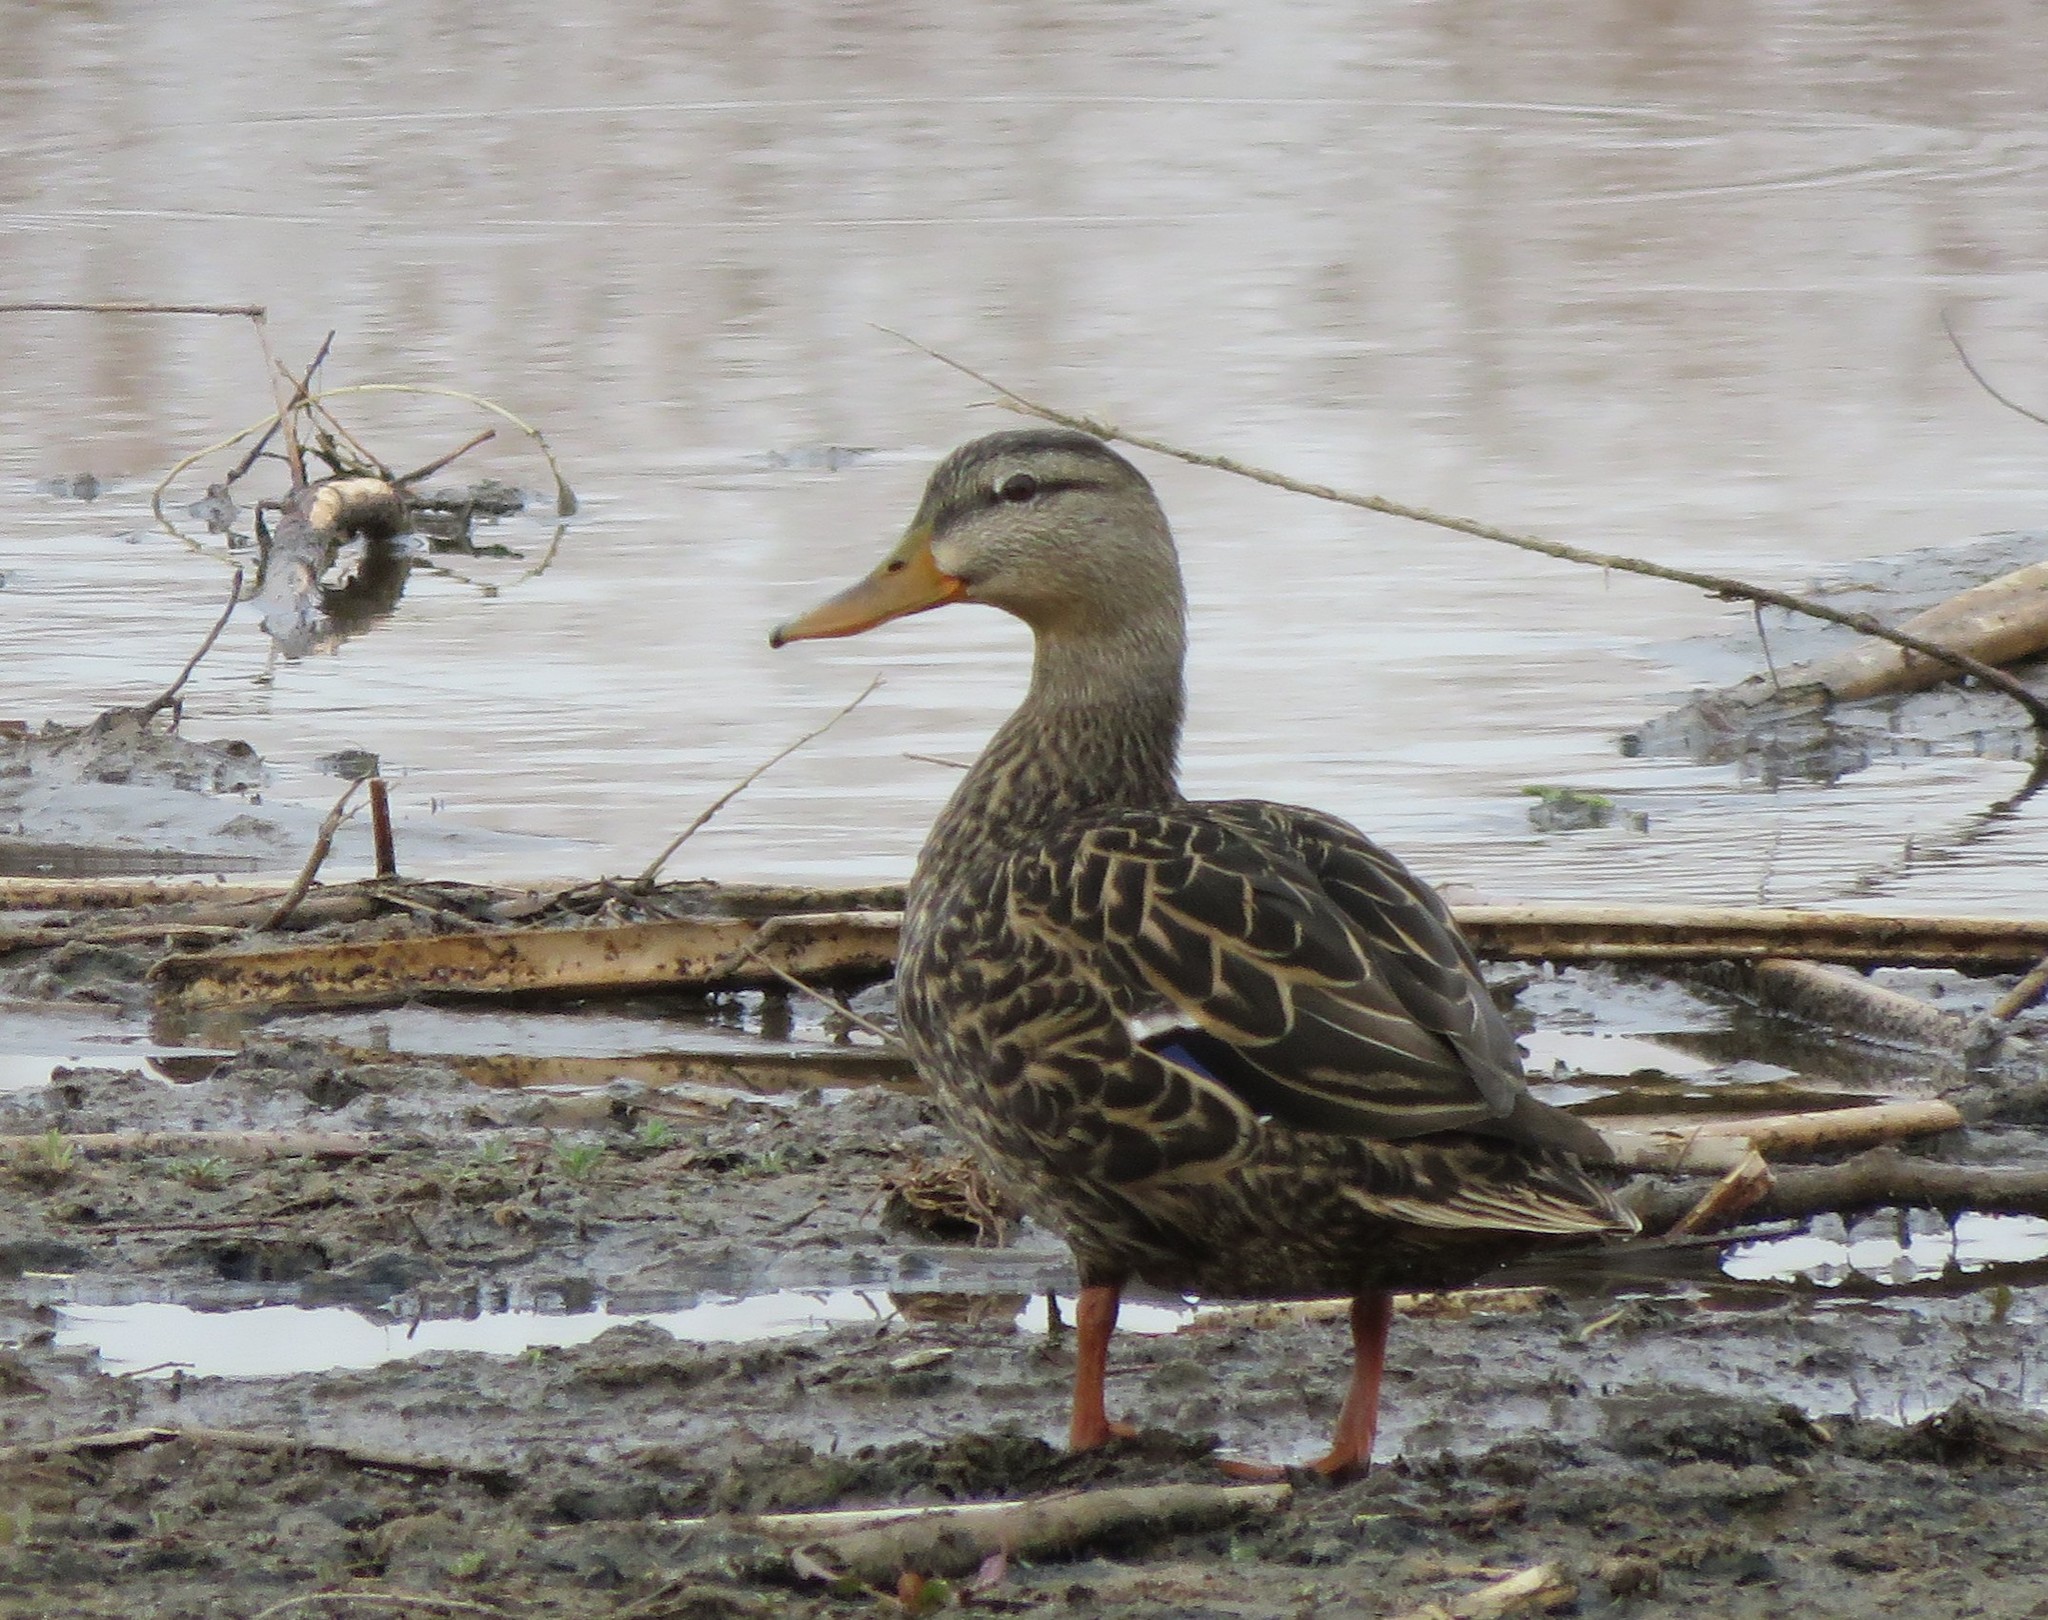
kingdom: Animalia
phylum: Chordata
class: Aves
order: Anseriformes
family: Anatidae
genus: Anas
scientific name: Anas diazi
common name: Mexican duck
